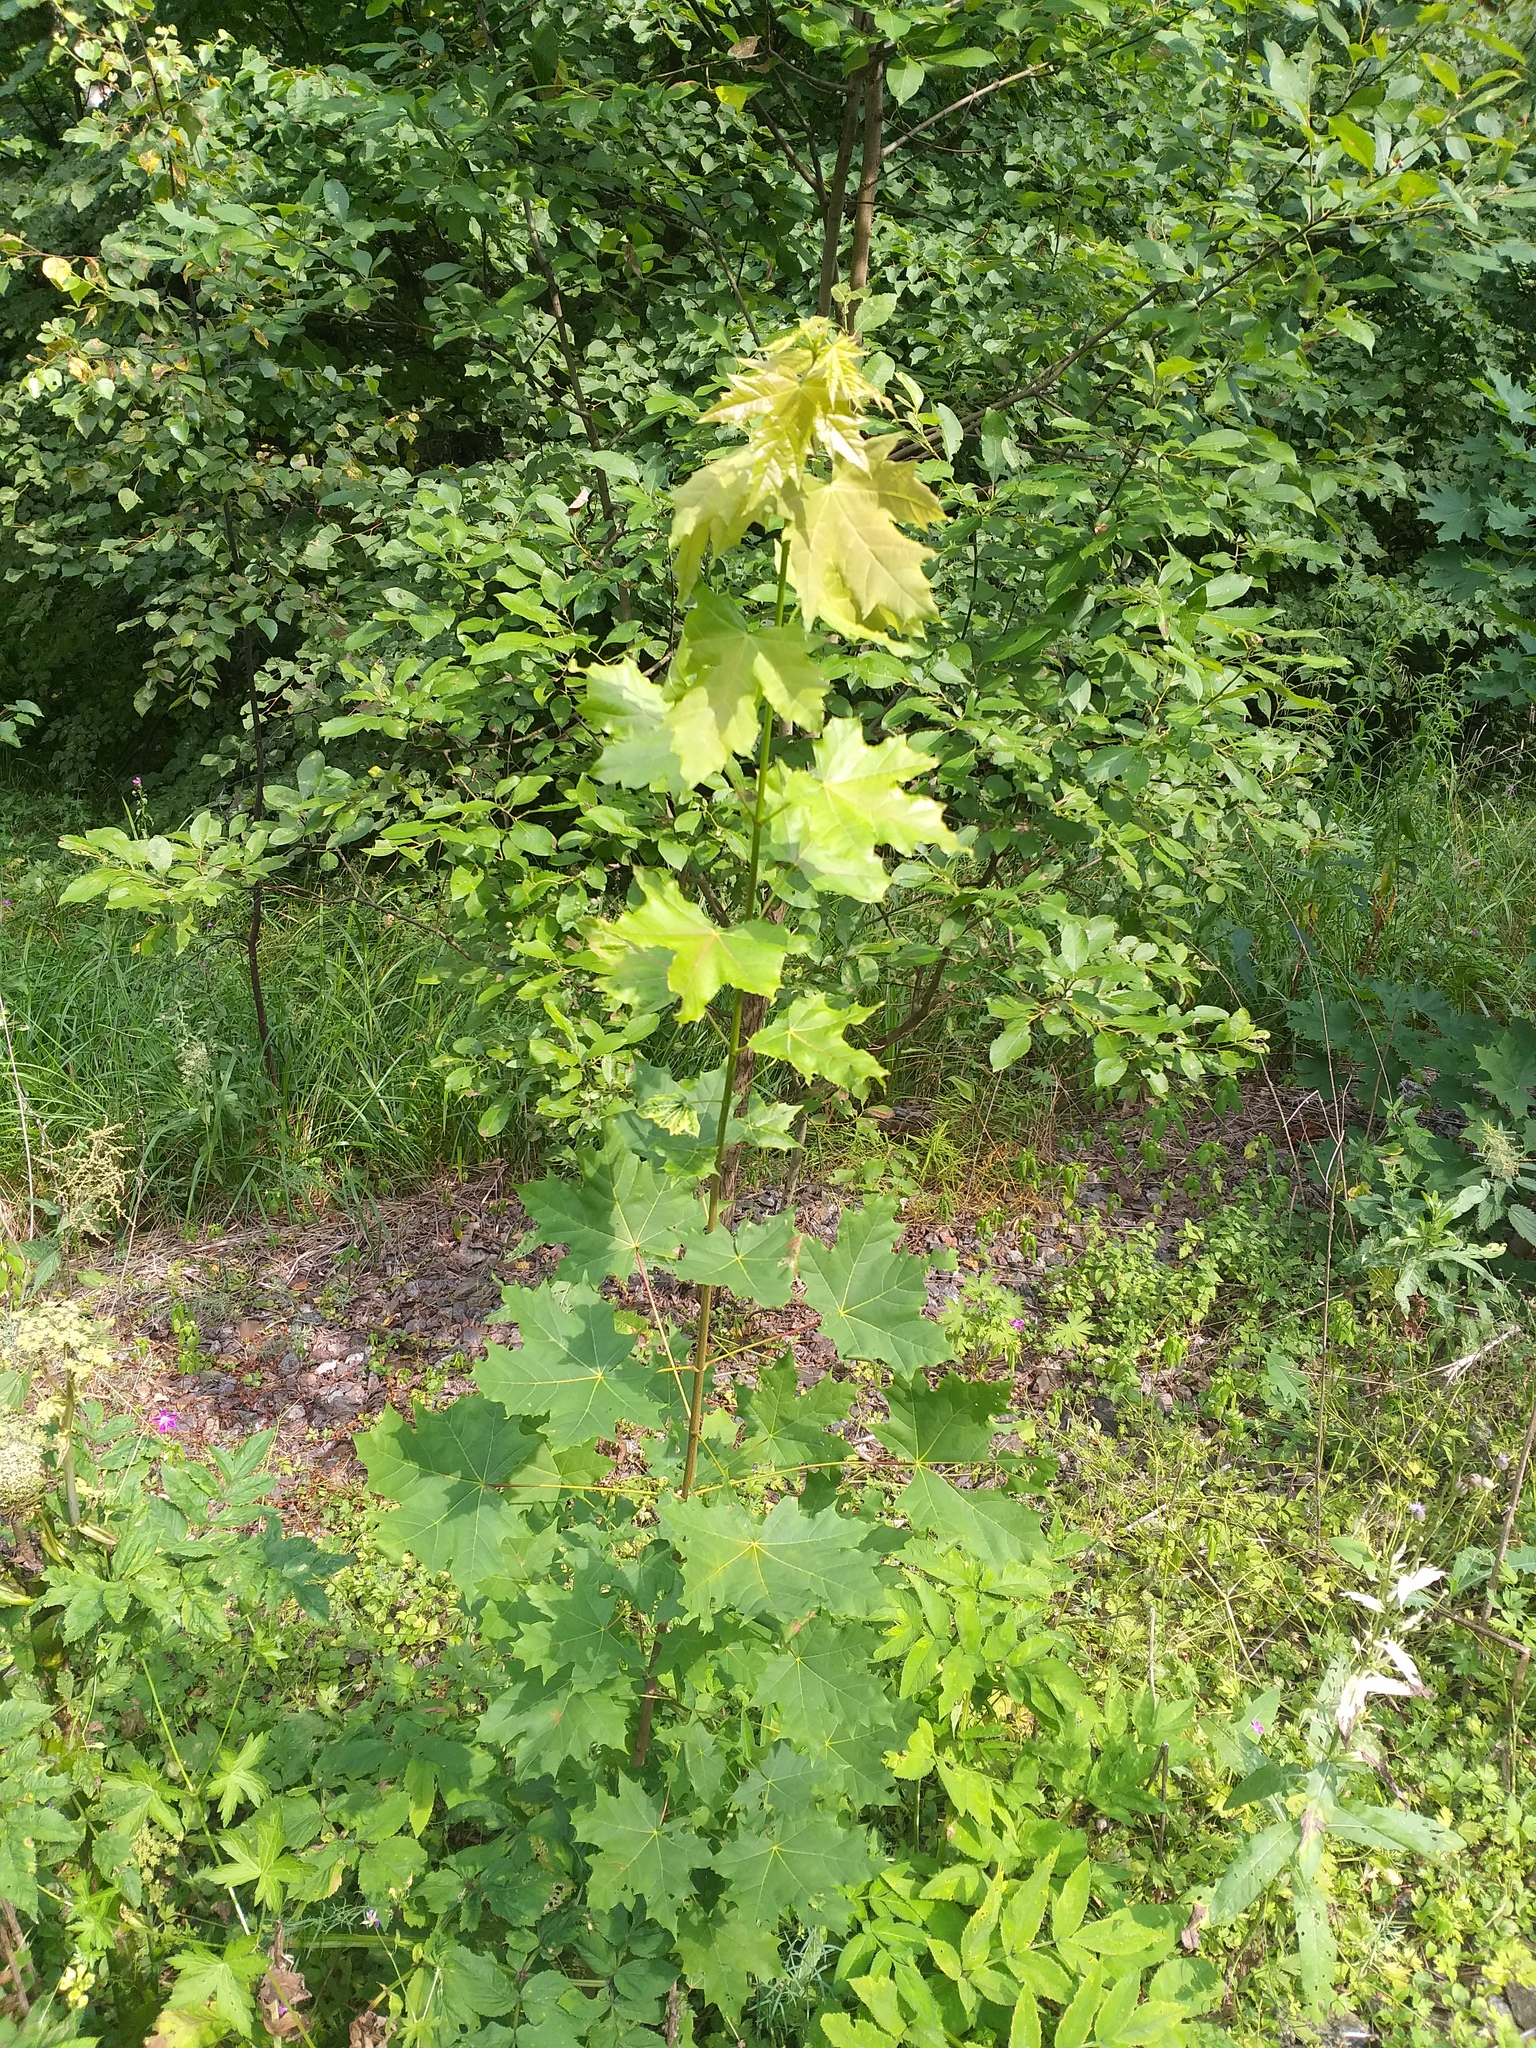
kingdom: Plantae
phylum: Tracheophyta
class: Magnoliopsida
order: Sapindales
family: Sapindaceae
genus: Acer
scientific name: Acer platanoides
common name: Norway maple
